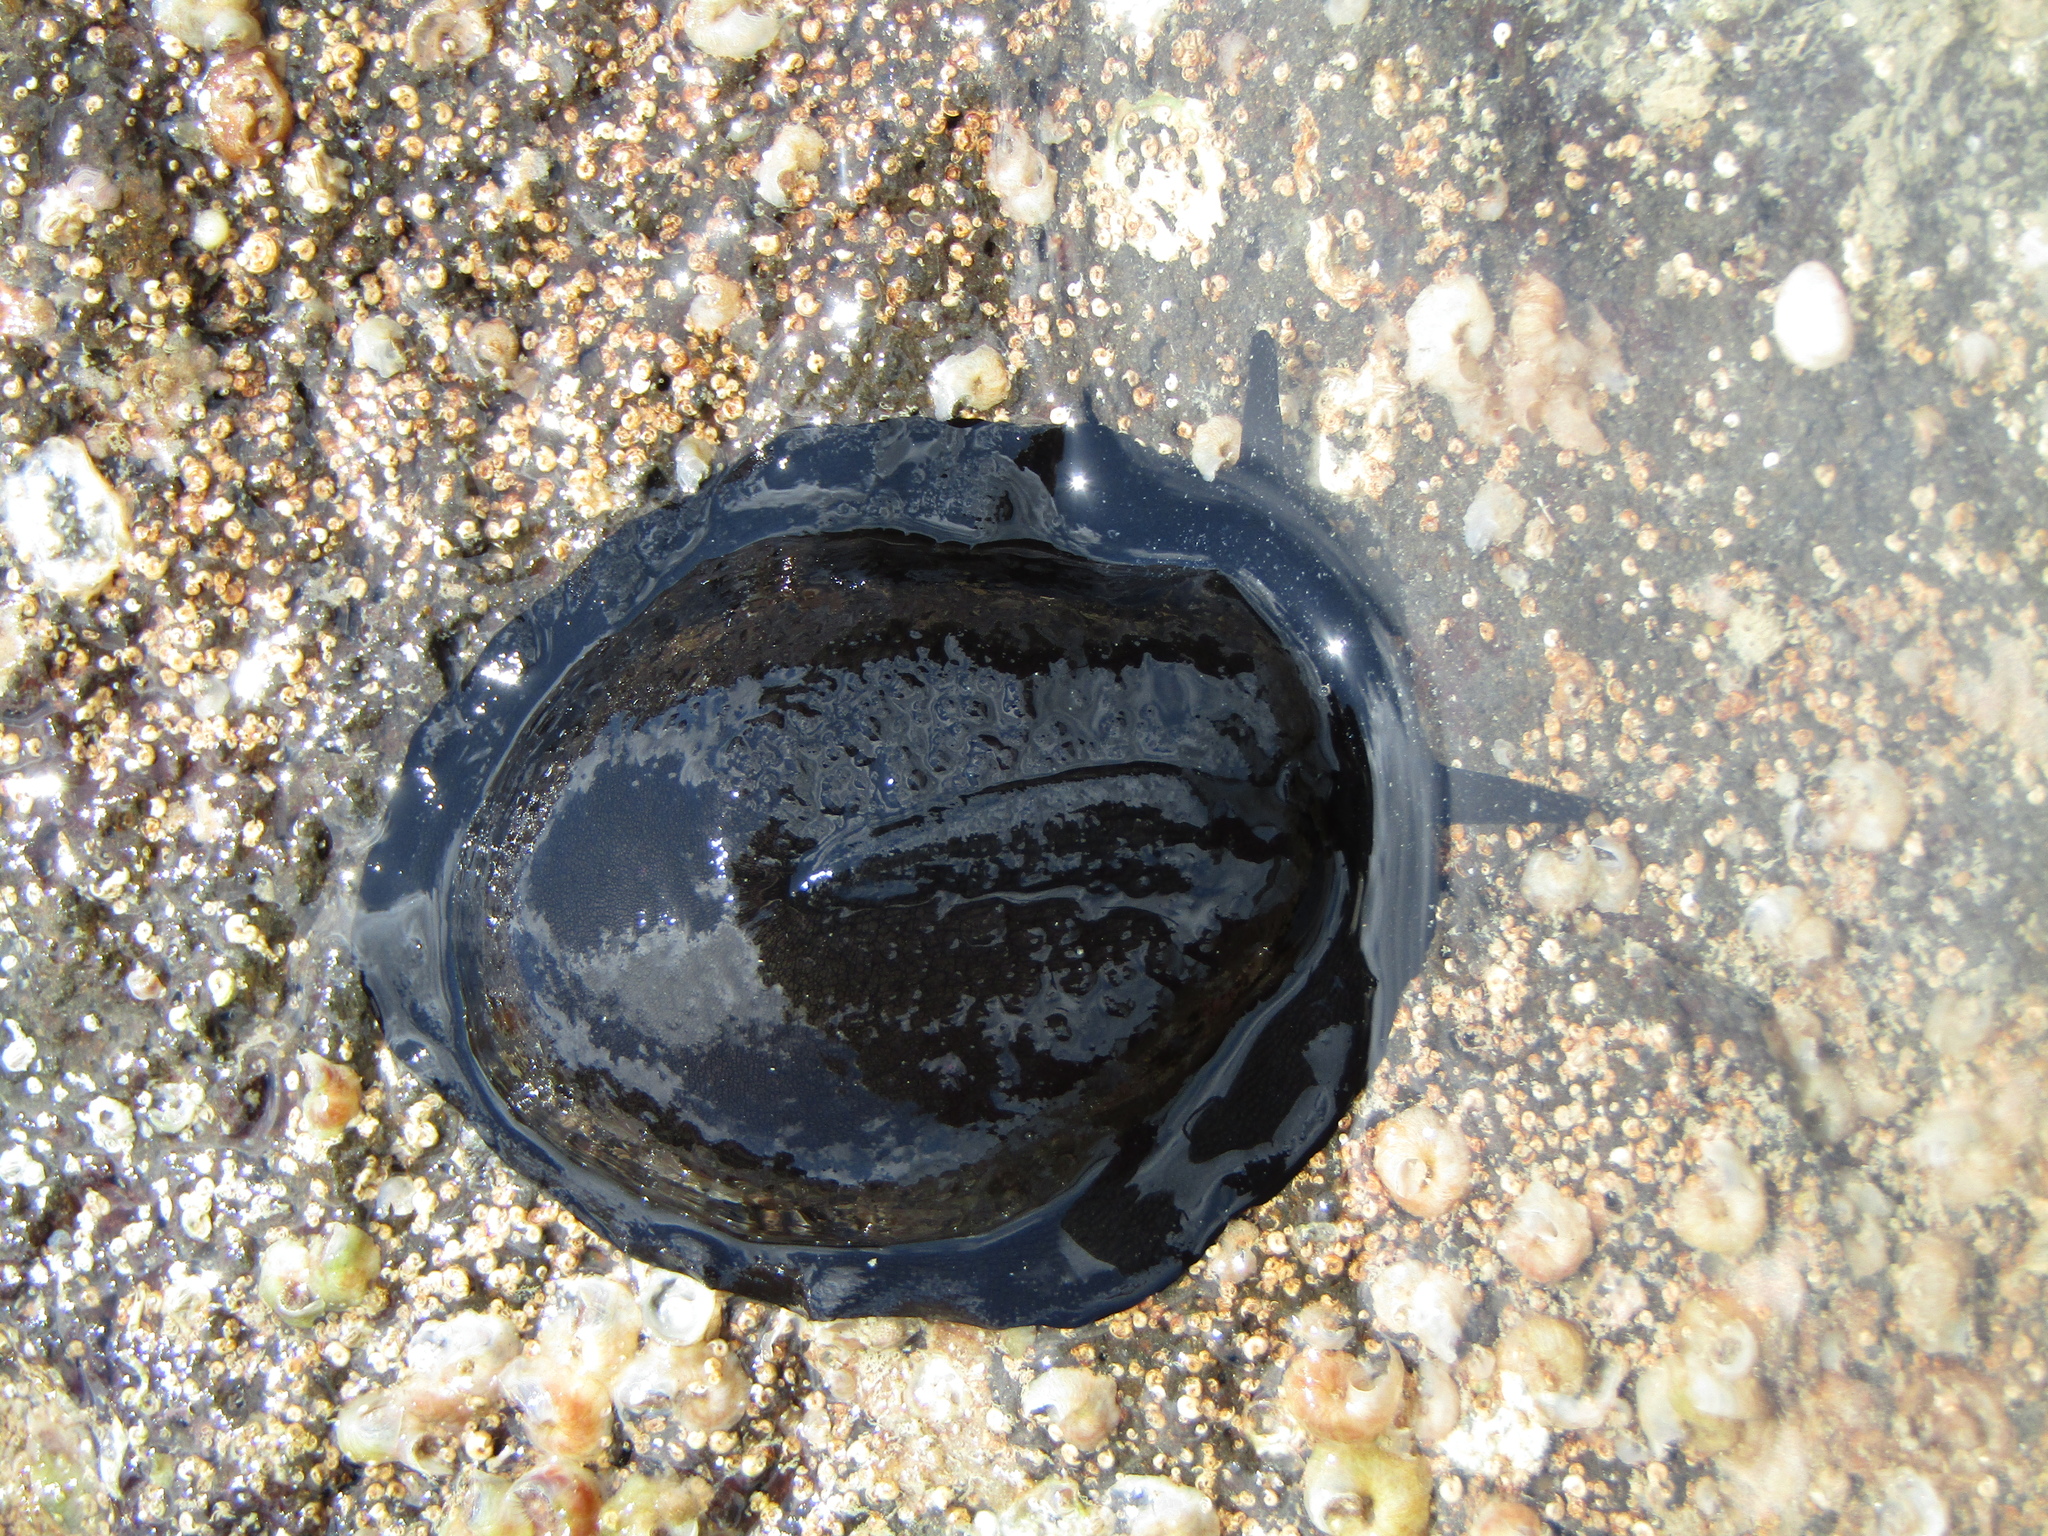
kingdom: Animalia
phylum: Mollusca
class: Gastropoda
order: Lepetellida
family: Fissurellidae
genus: Scutus
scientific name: Scutus breviculus
